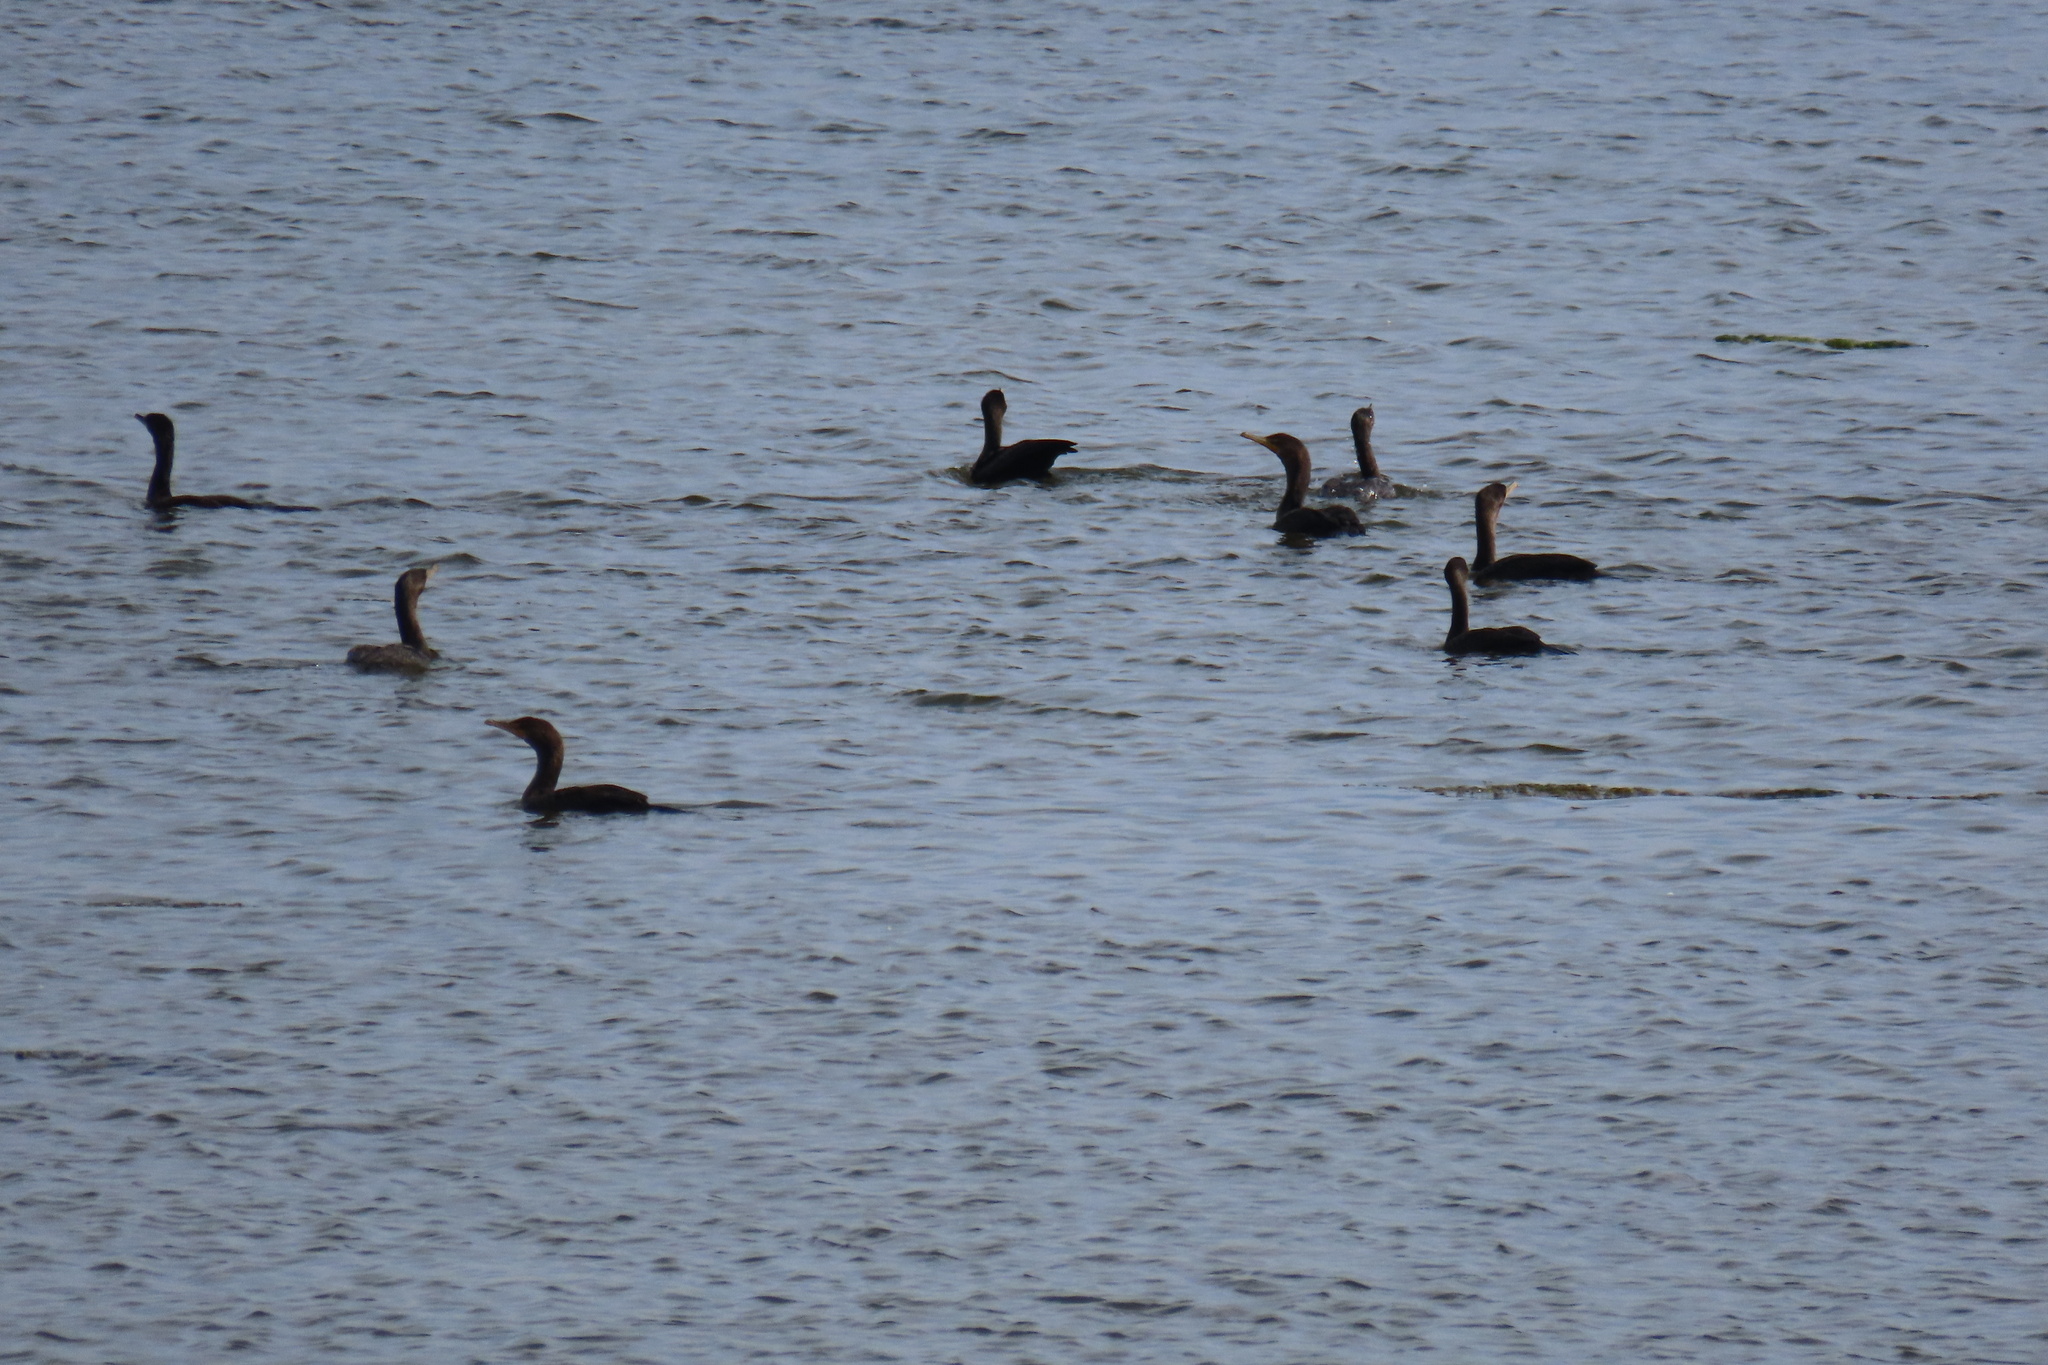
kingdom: Animalia
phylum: Chordata
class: Aves
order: Suliformes
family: Phalacrocoracidae
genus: Phalacrocorax
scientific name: Phalacrocorax auritus
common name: Double-crested cormorant
